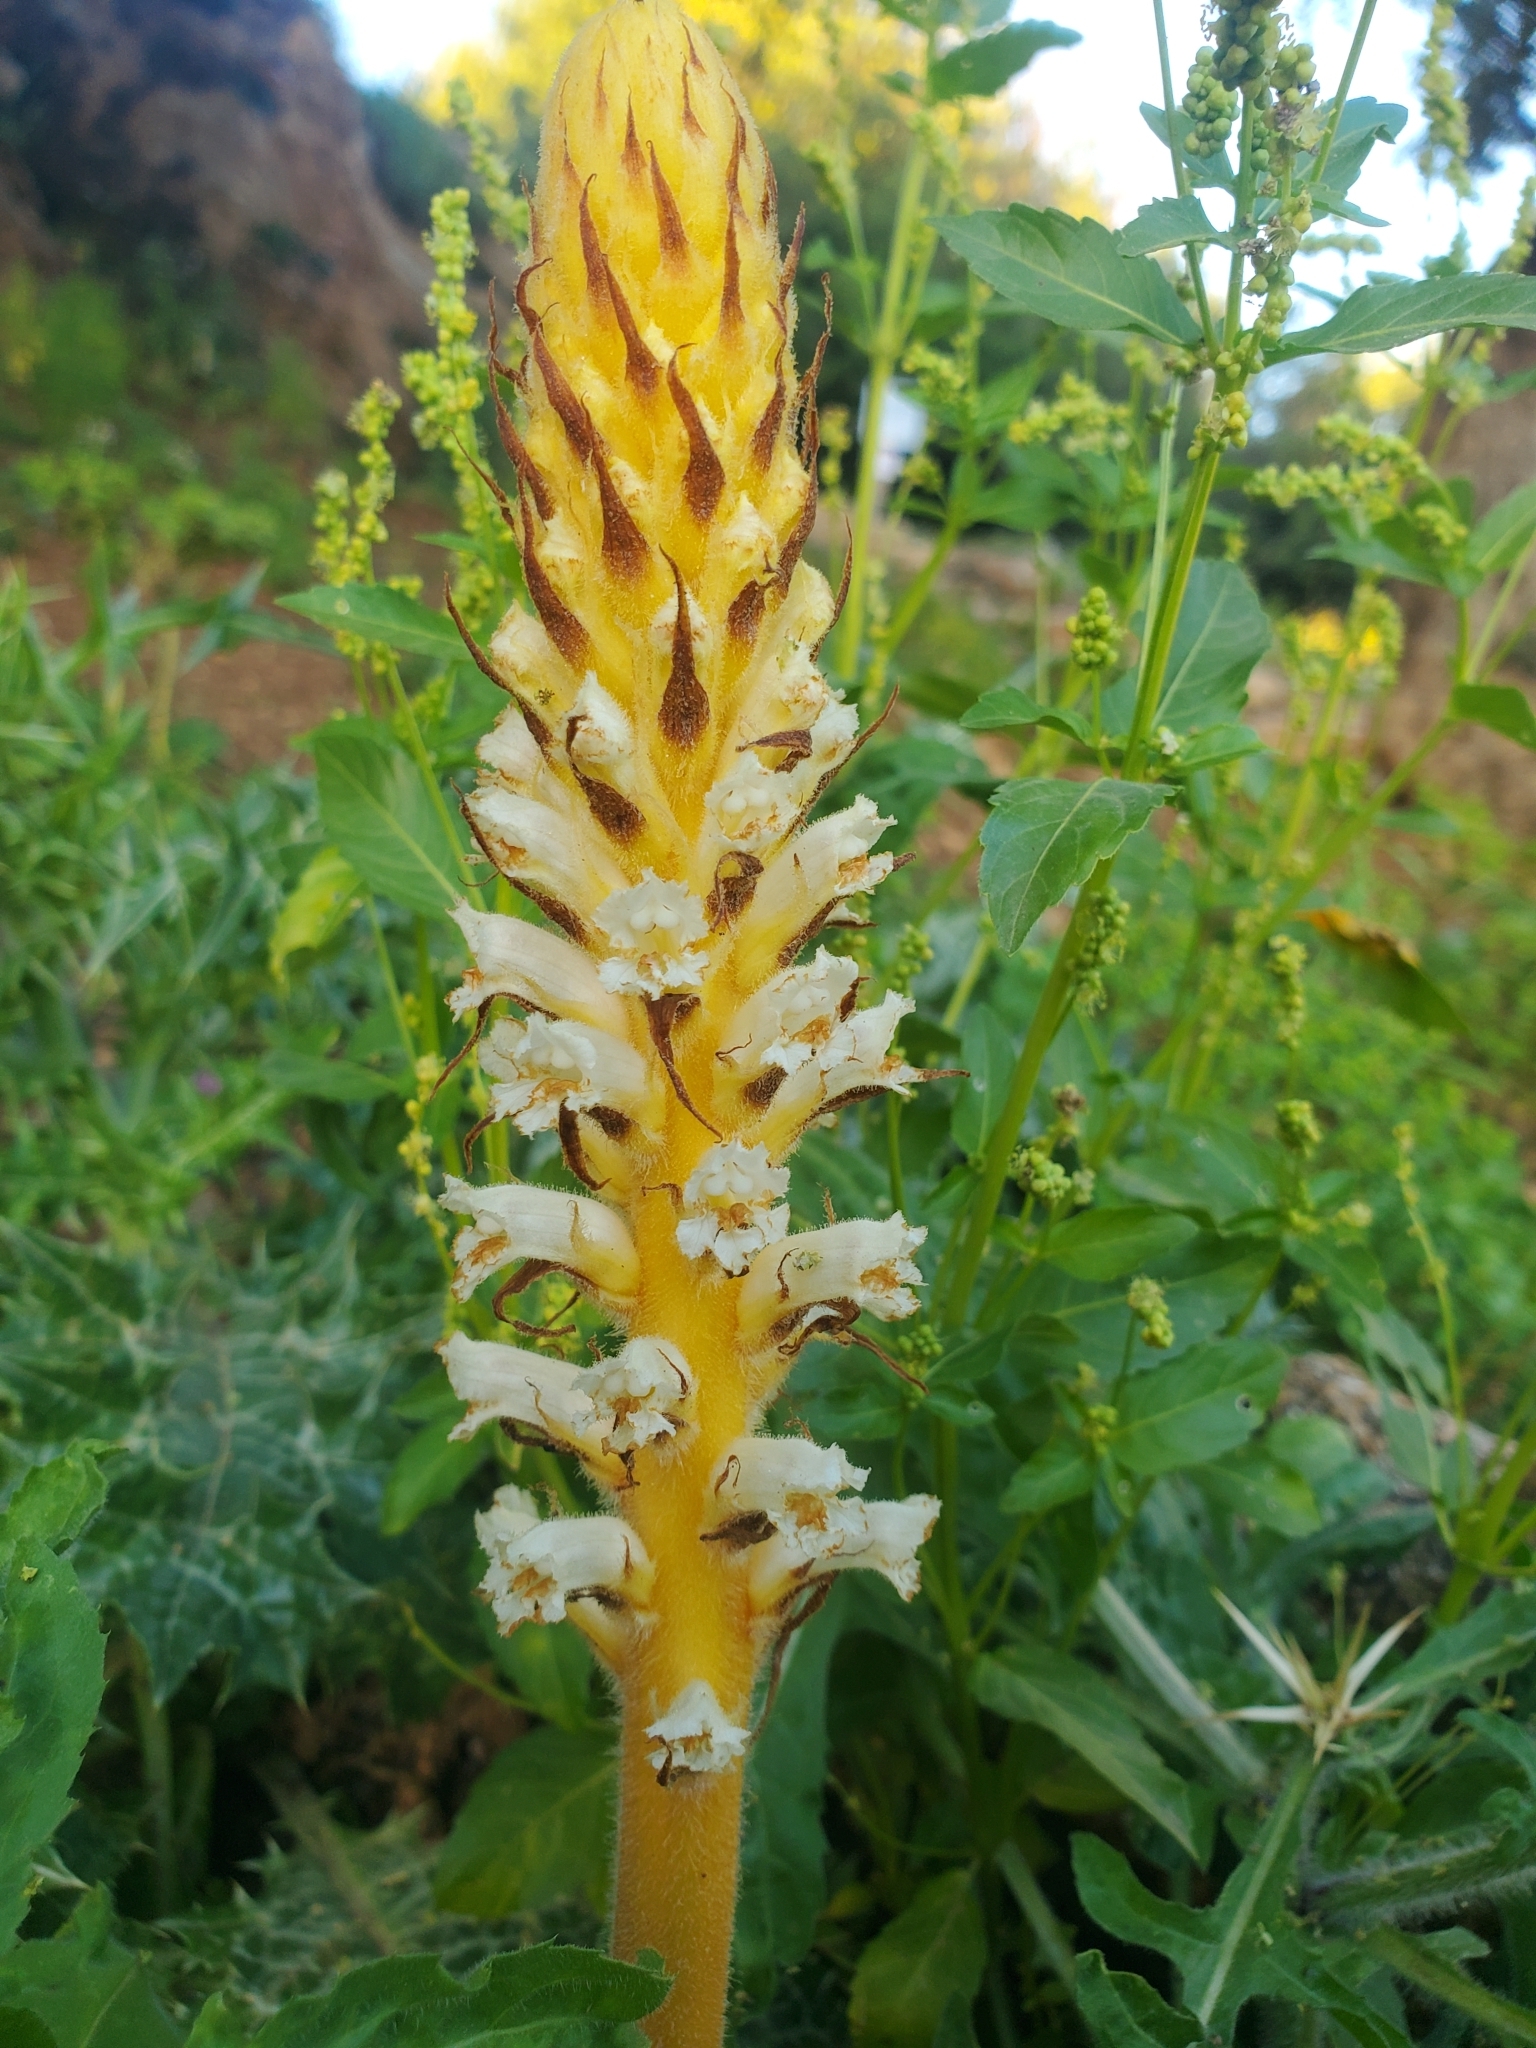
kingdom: Plantae
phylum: Tracheophyta
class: Magnoliopsida
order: Lamiales
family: Orobanchaceae
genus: Orobanche
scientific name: Orobanche palaestina
